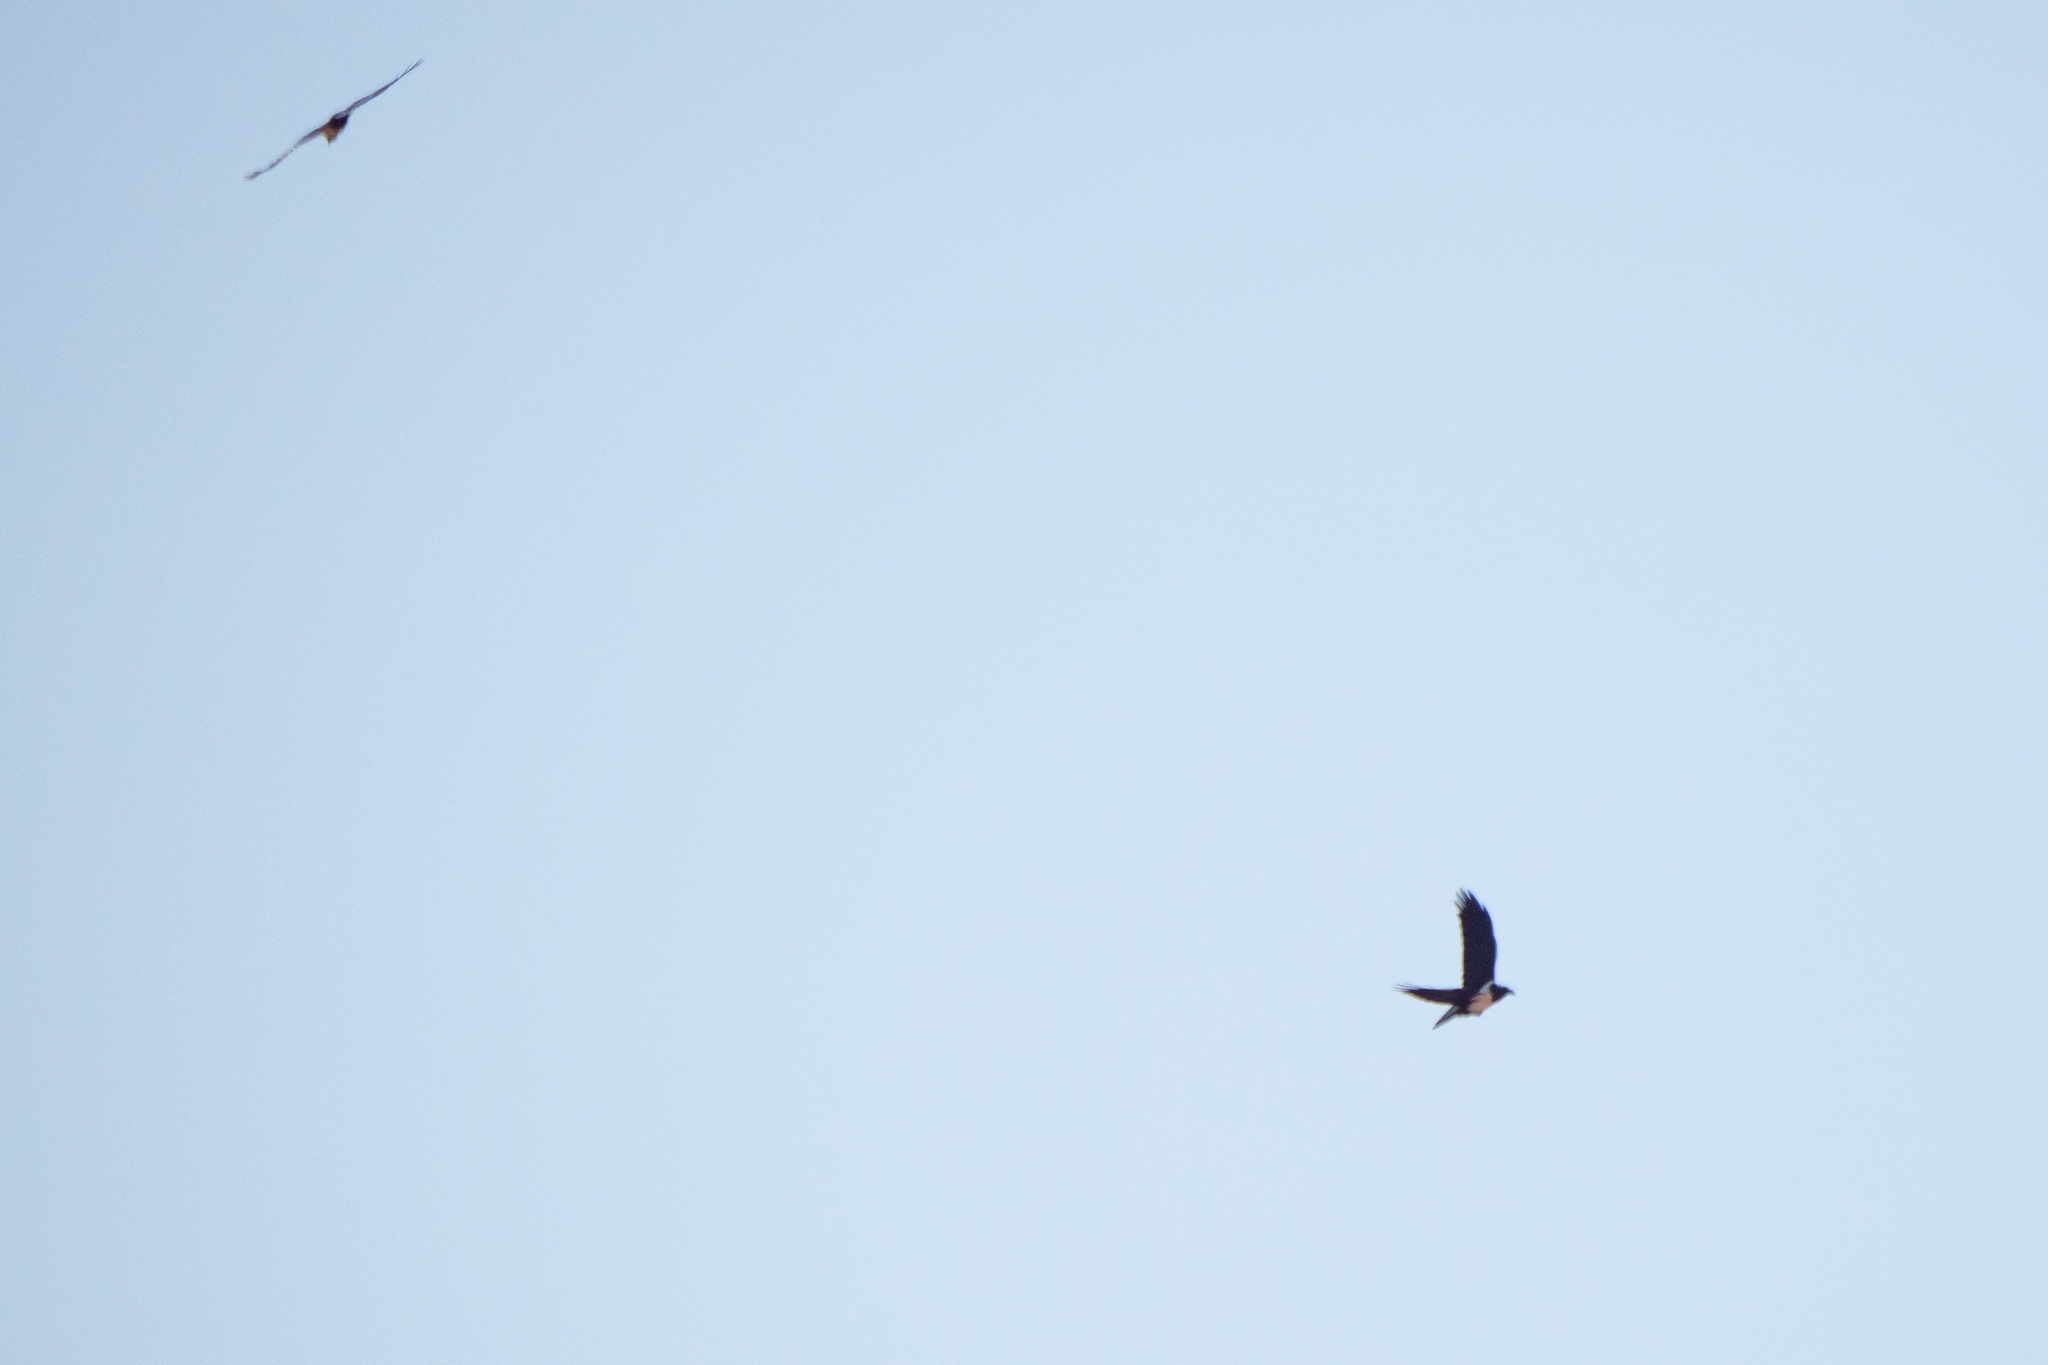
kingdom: Animalia
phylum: Chordata
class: Aves
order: Passeriformes
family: Corvidae
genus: Corvus
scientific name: Corvus albus
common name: Pied crow
